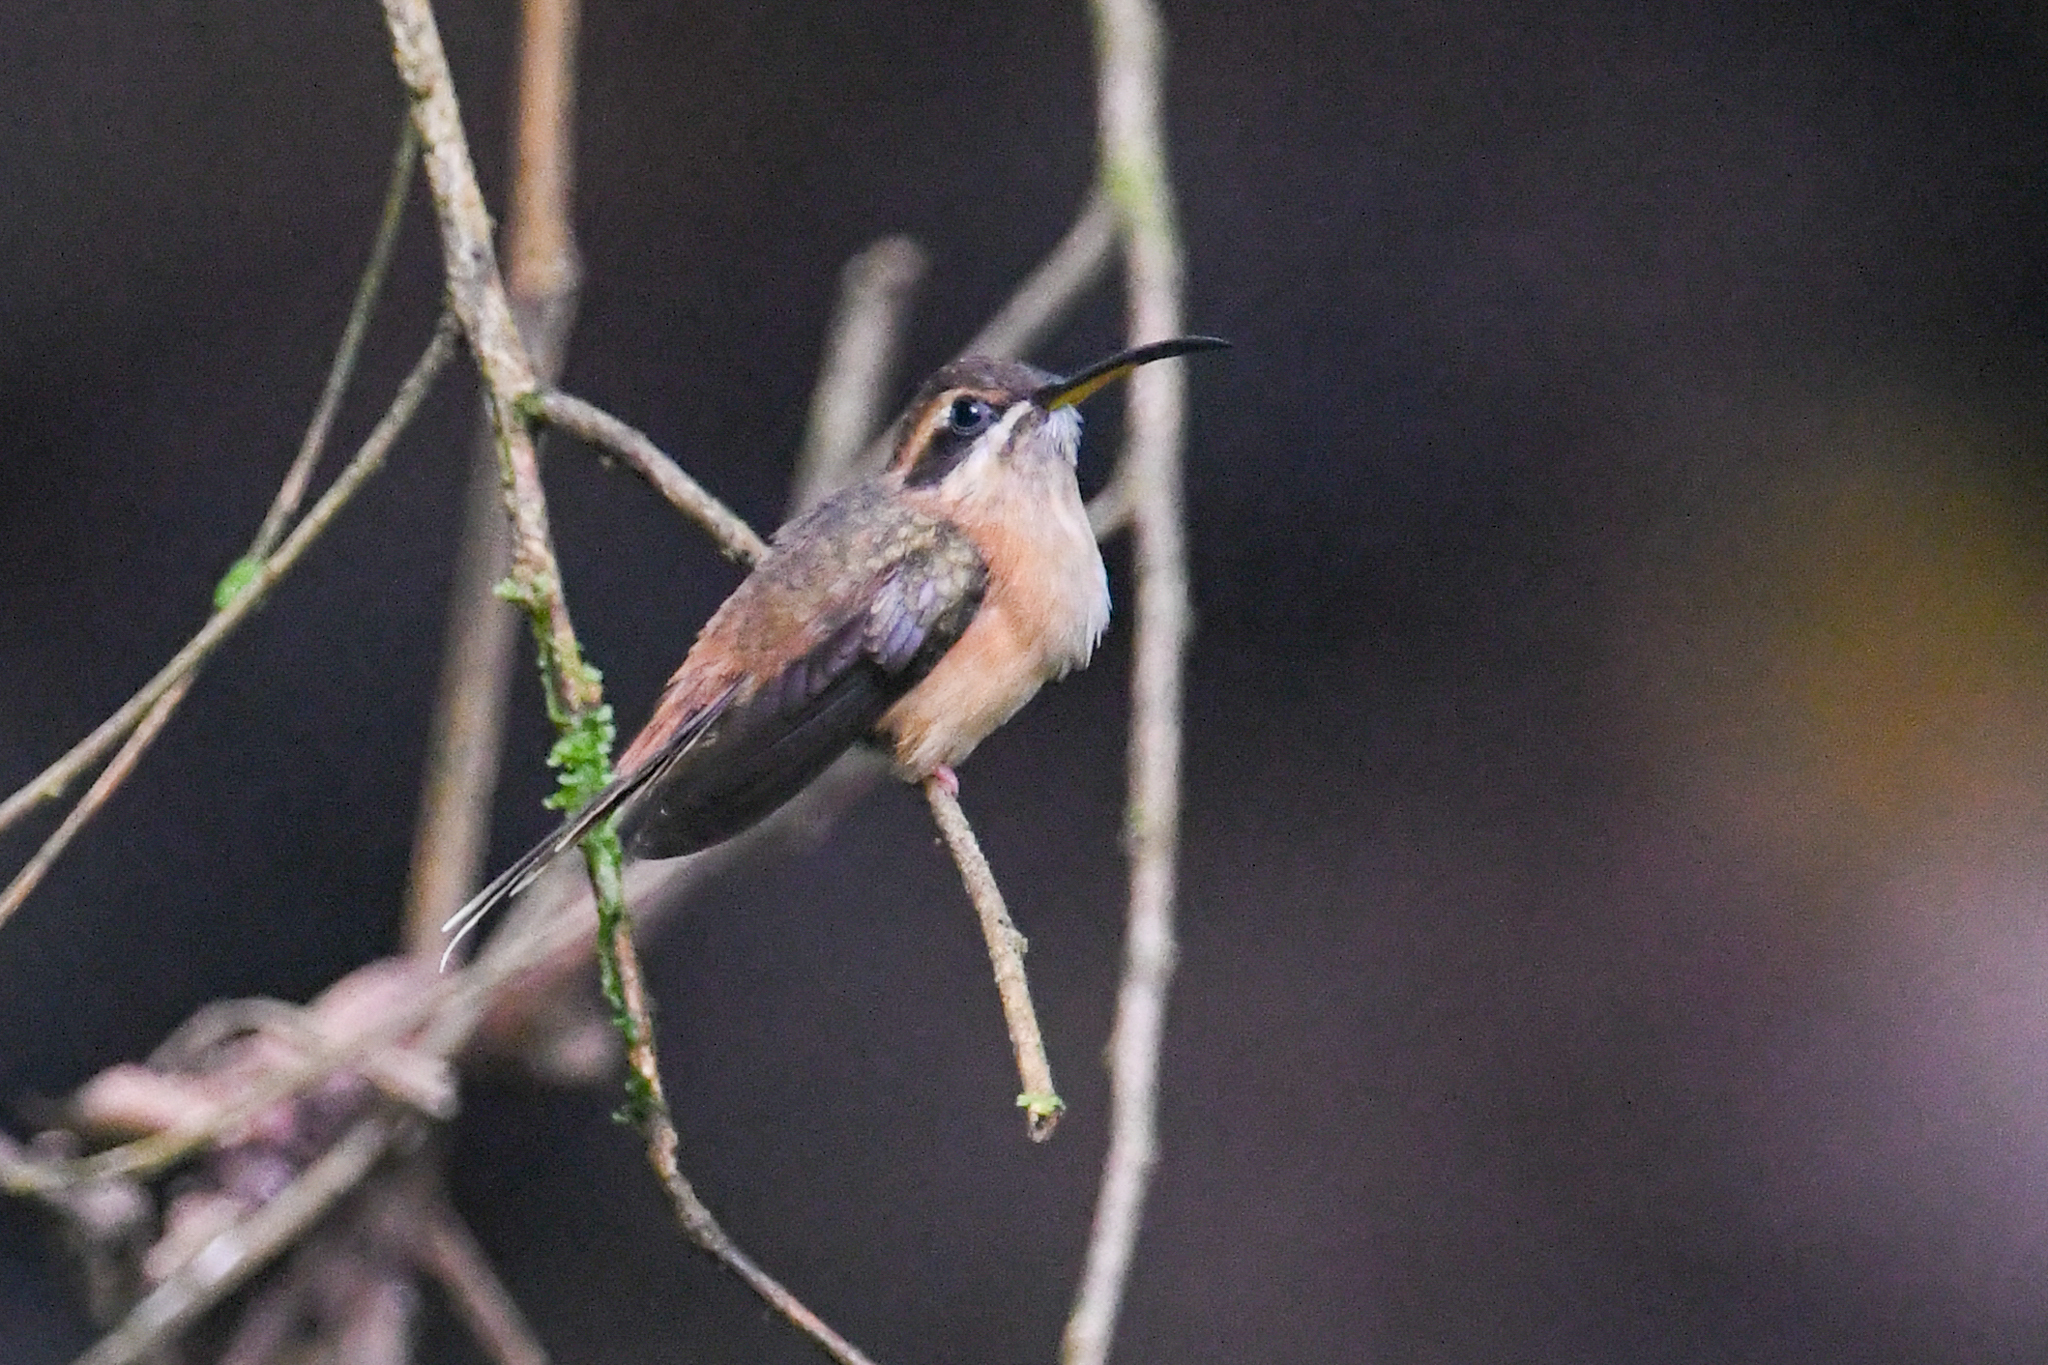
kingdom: Animalia
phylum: Chordata
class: Aves
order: Apodiformes
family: Trochilidae
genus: Phaethornis
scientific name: Phaethornis striigularis
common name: Stripe-throated hermit
